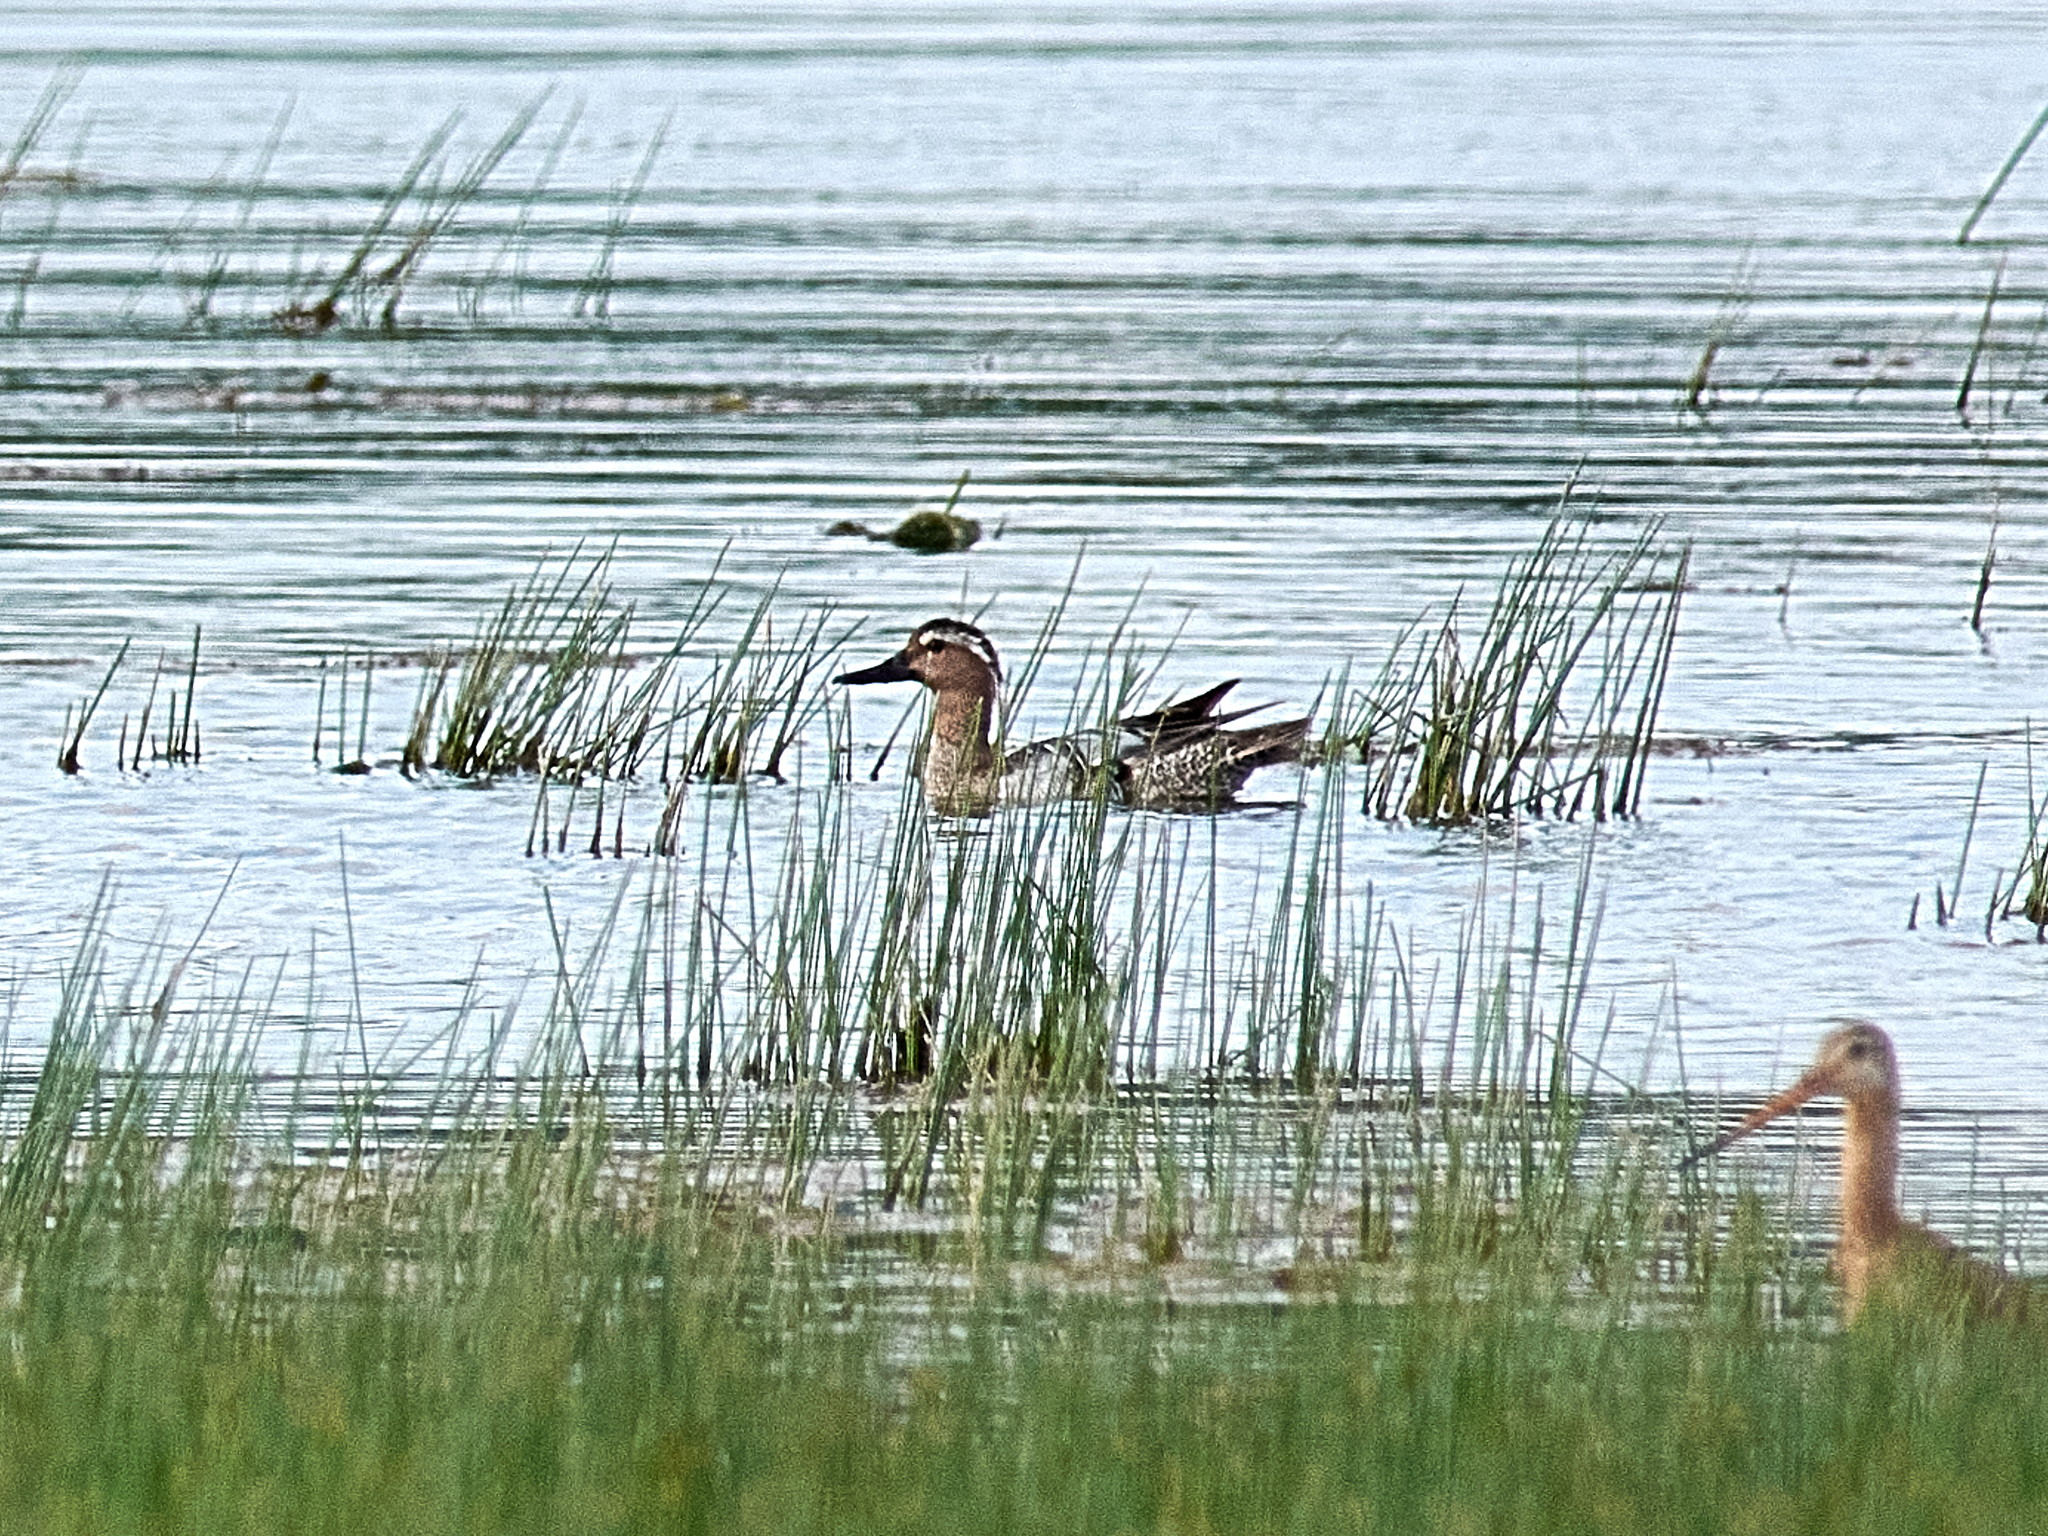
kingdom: Animalia
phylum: Chordata
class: Aves
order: Anseriformes
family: Anatidae
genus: Spatula
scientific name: Spatula querquedula
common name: Garganey
